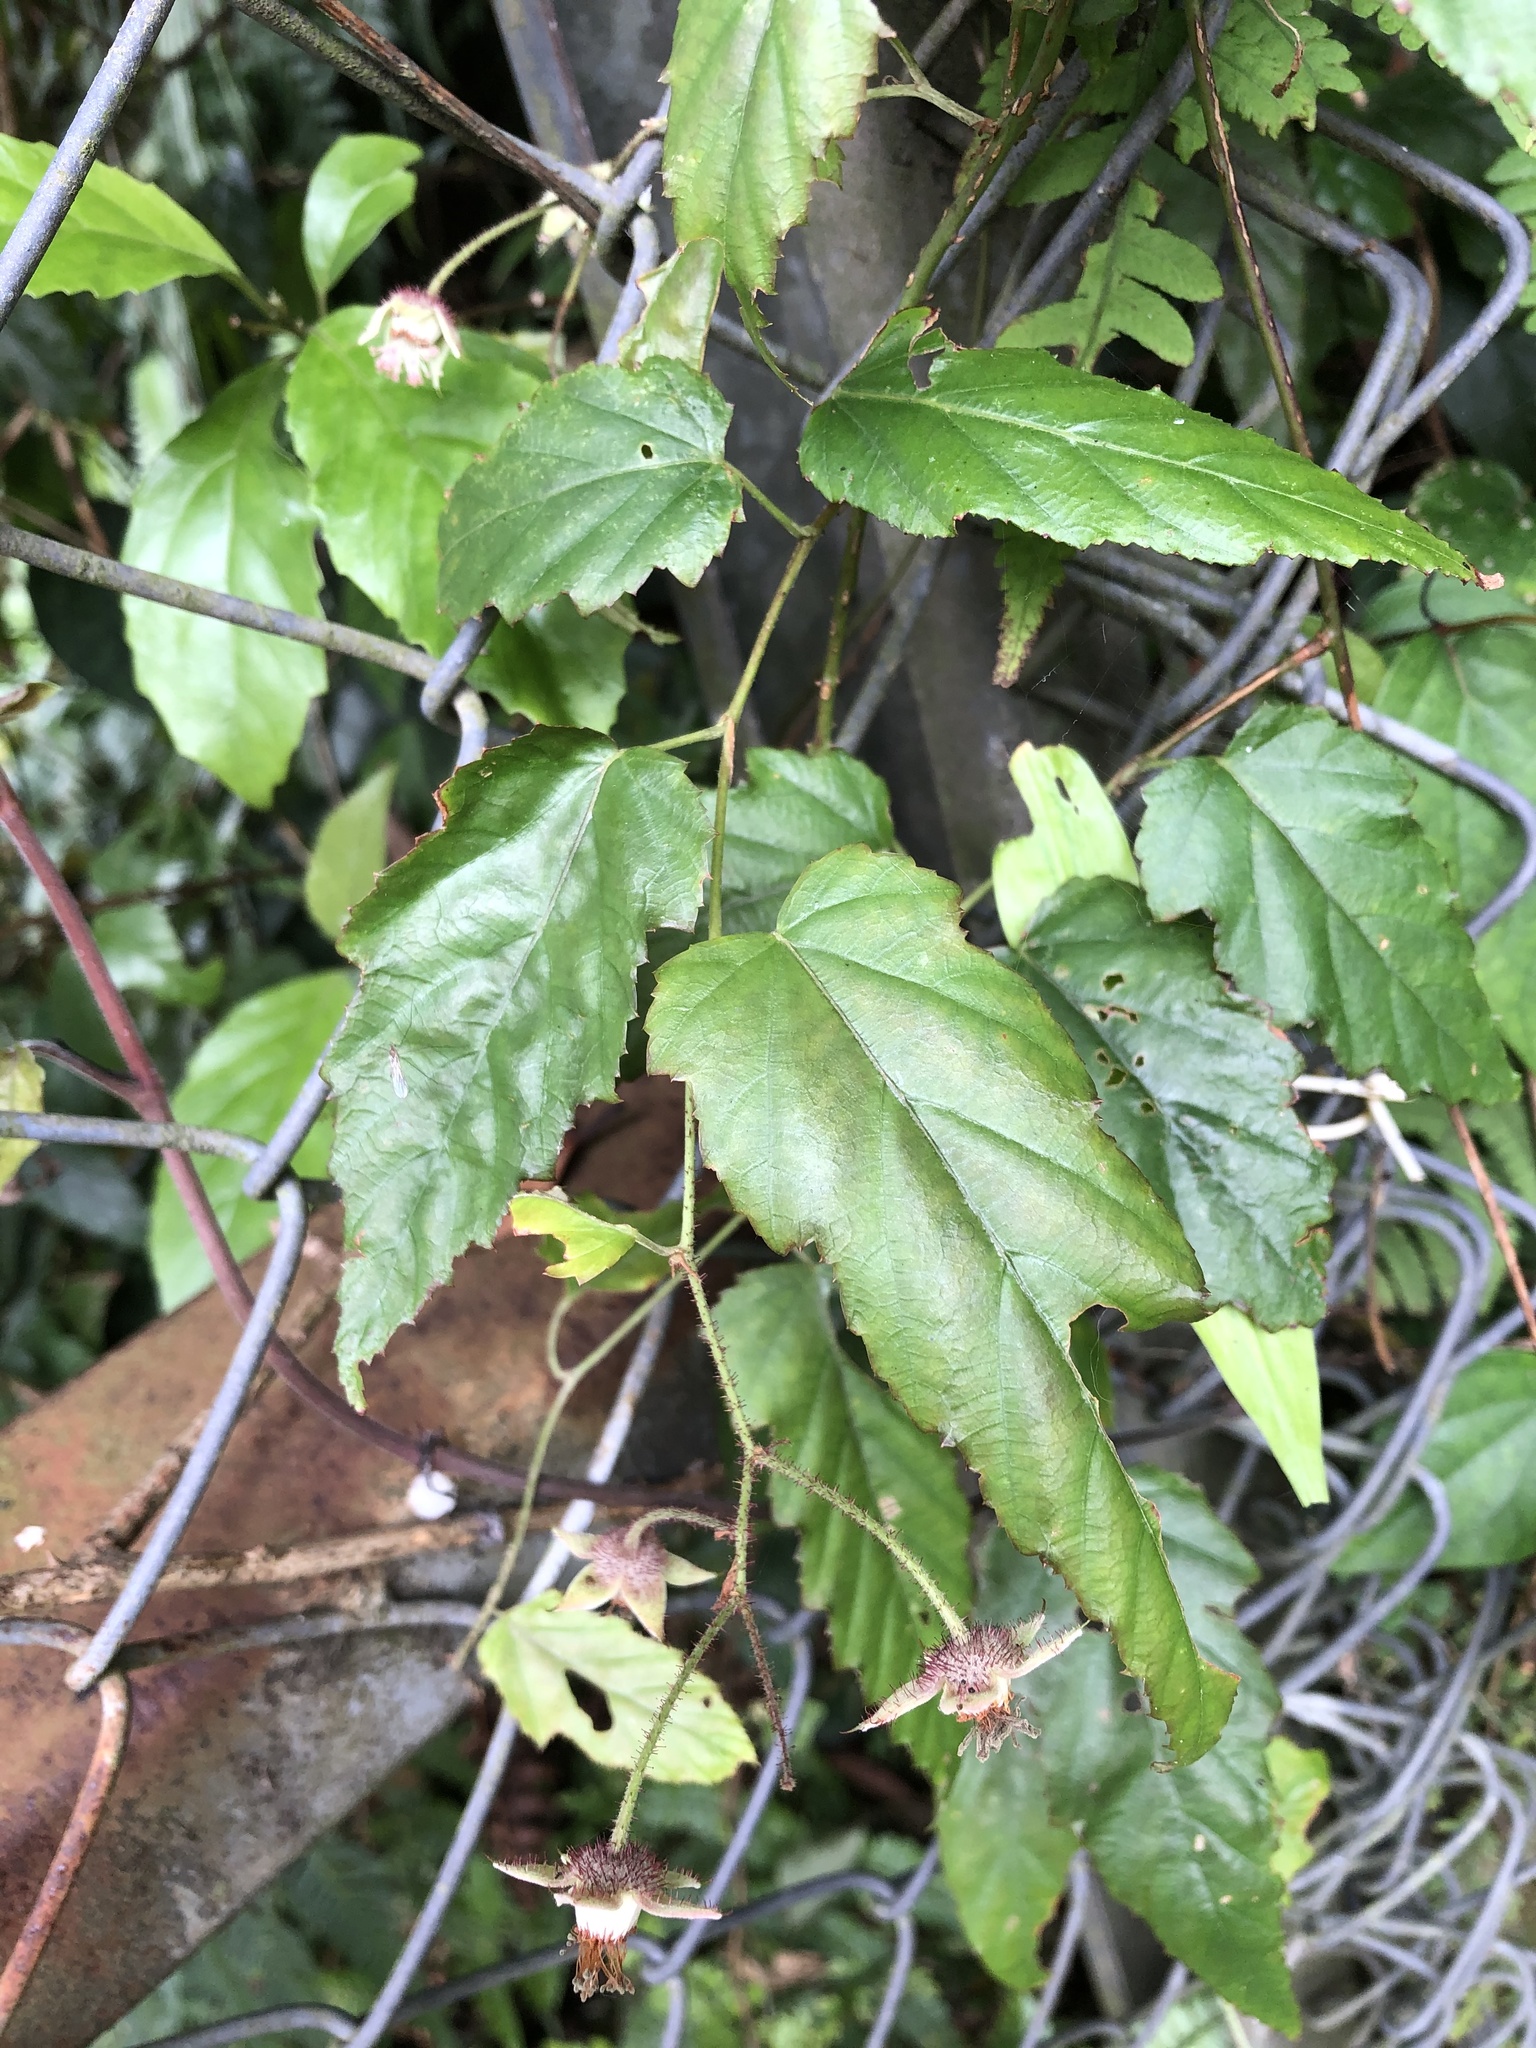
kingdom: Plantae
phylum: Tracheophyta
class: Magnoliopsida
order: Rosales
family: Rosaceae
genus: Rubus
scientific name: Rubus swinhoei
